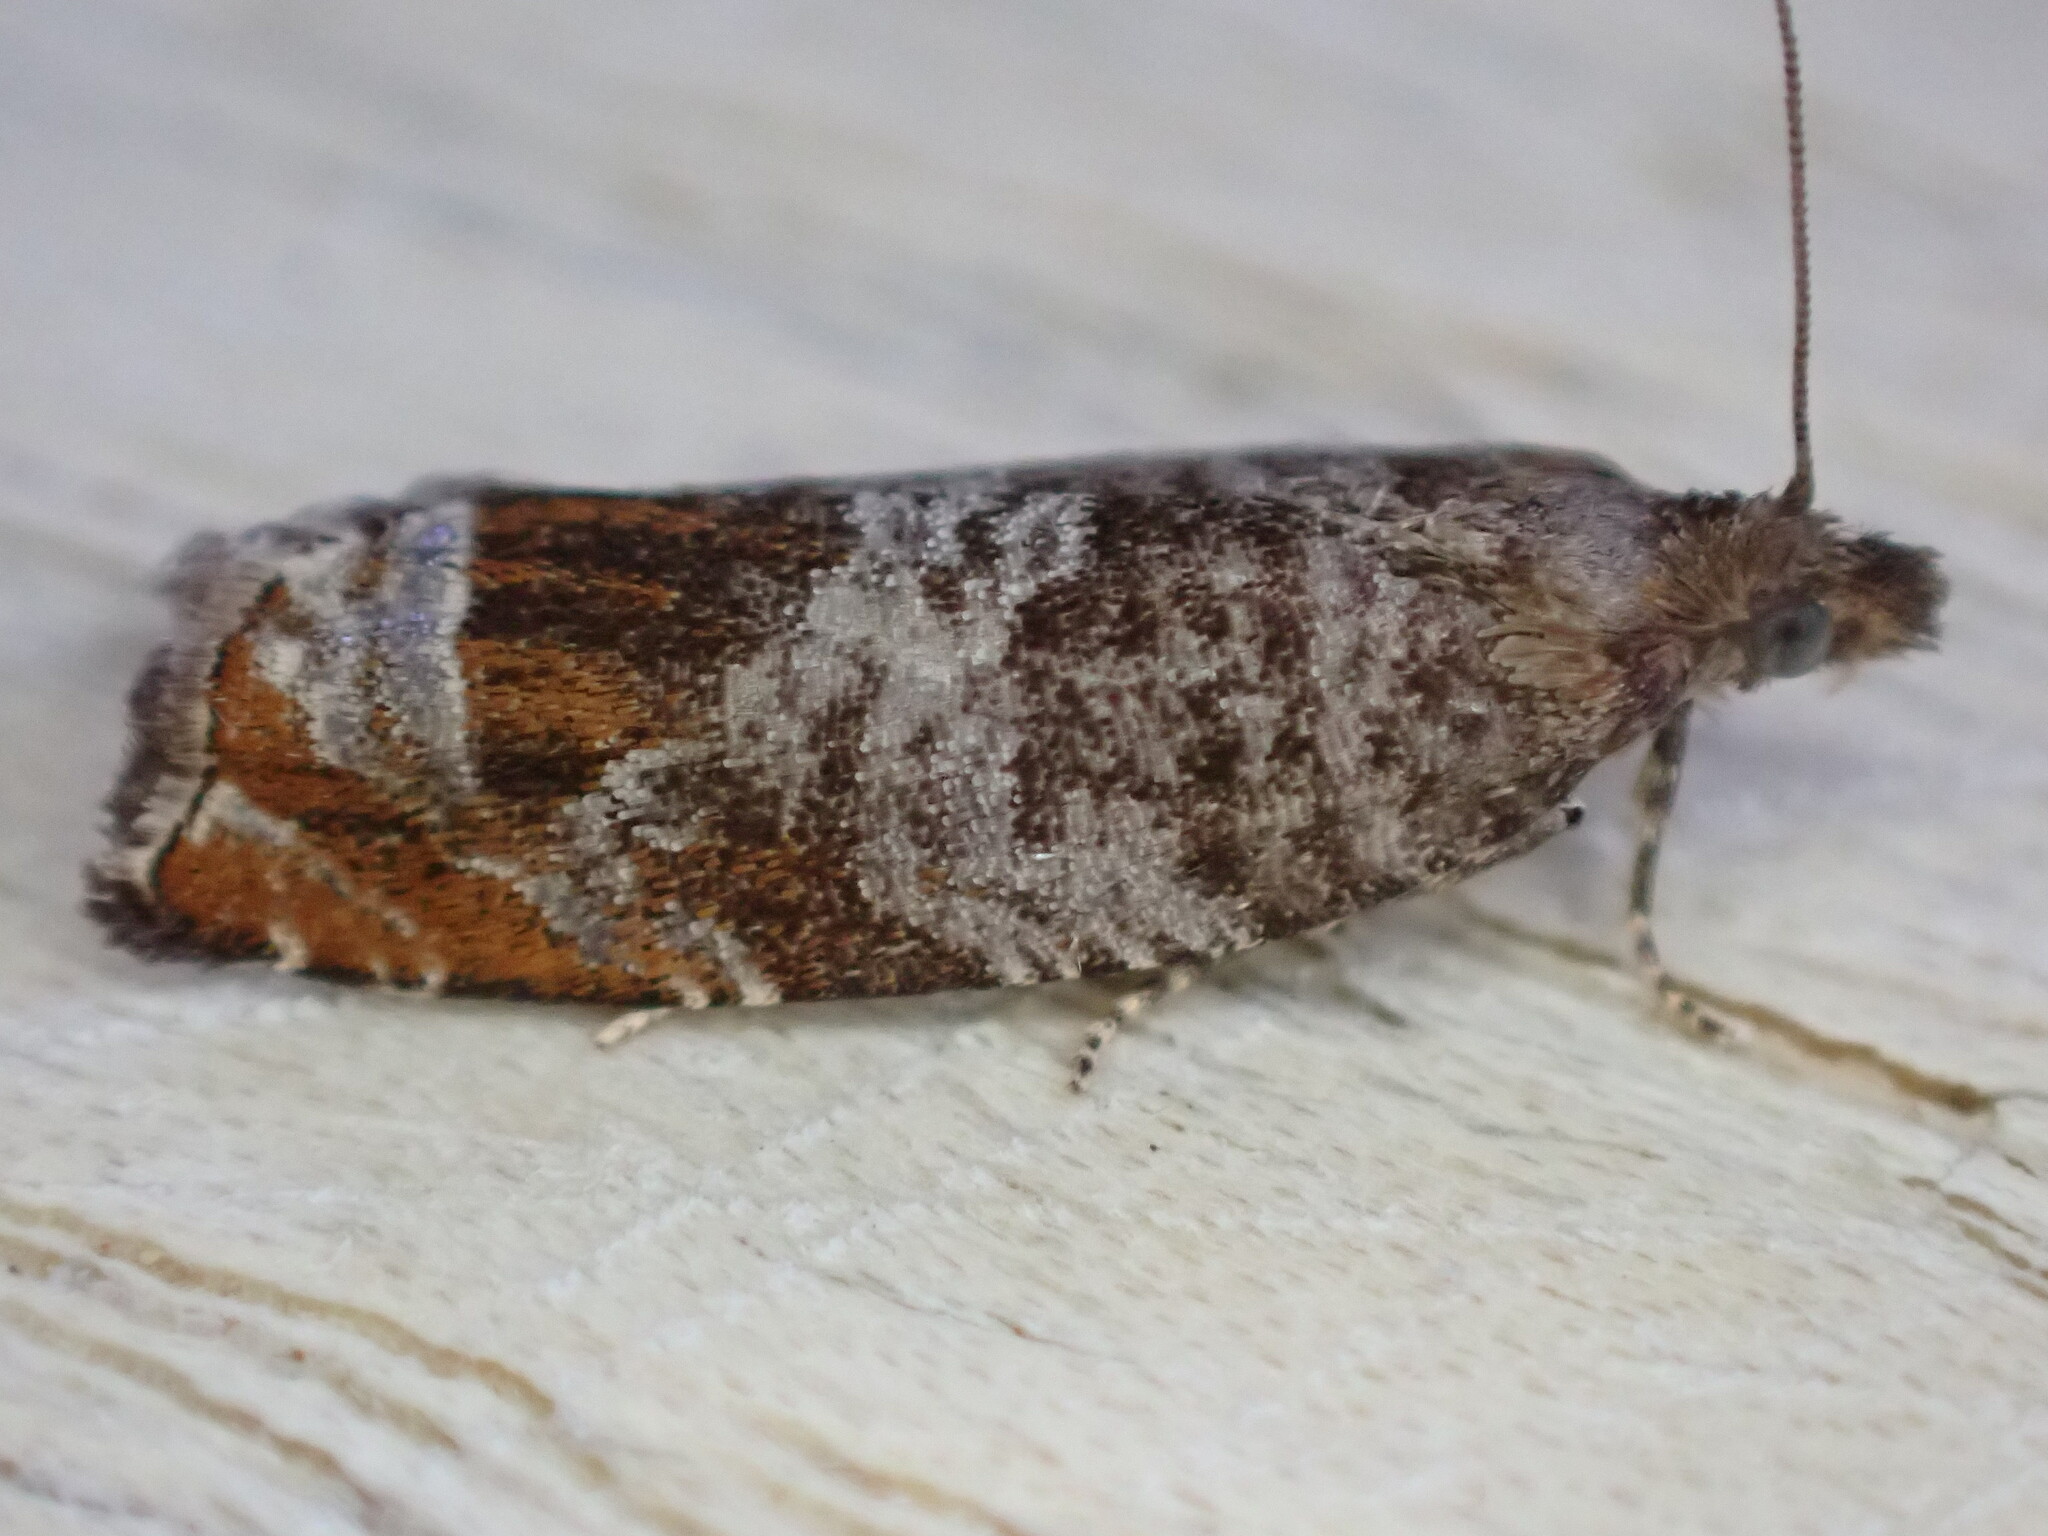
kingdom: Animalia
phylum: Arthropoda
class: Insecta
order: Lepidoptera
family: Tortricidae
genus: Ancylis
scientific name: Ancylis achatana
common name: Triangle-marked roller
